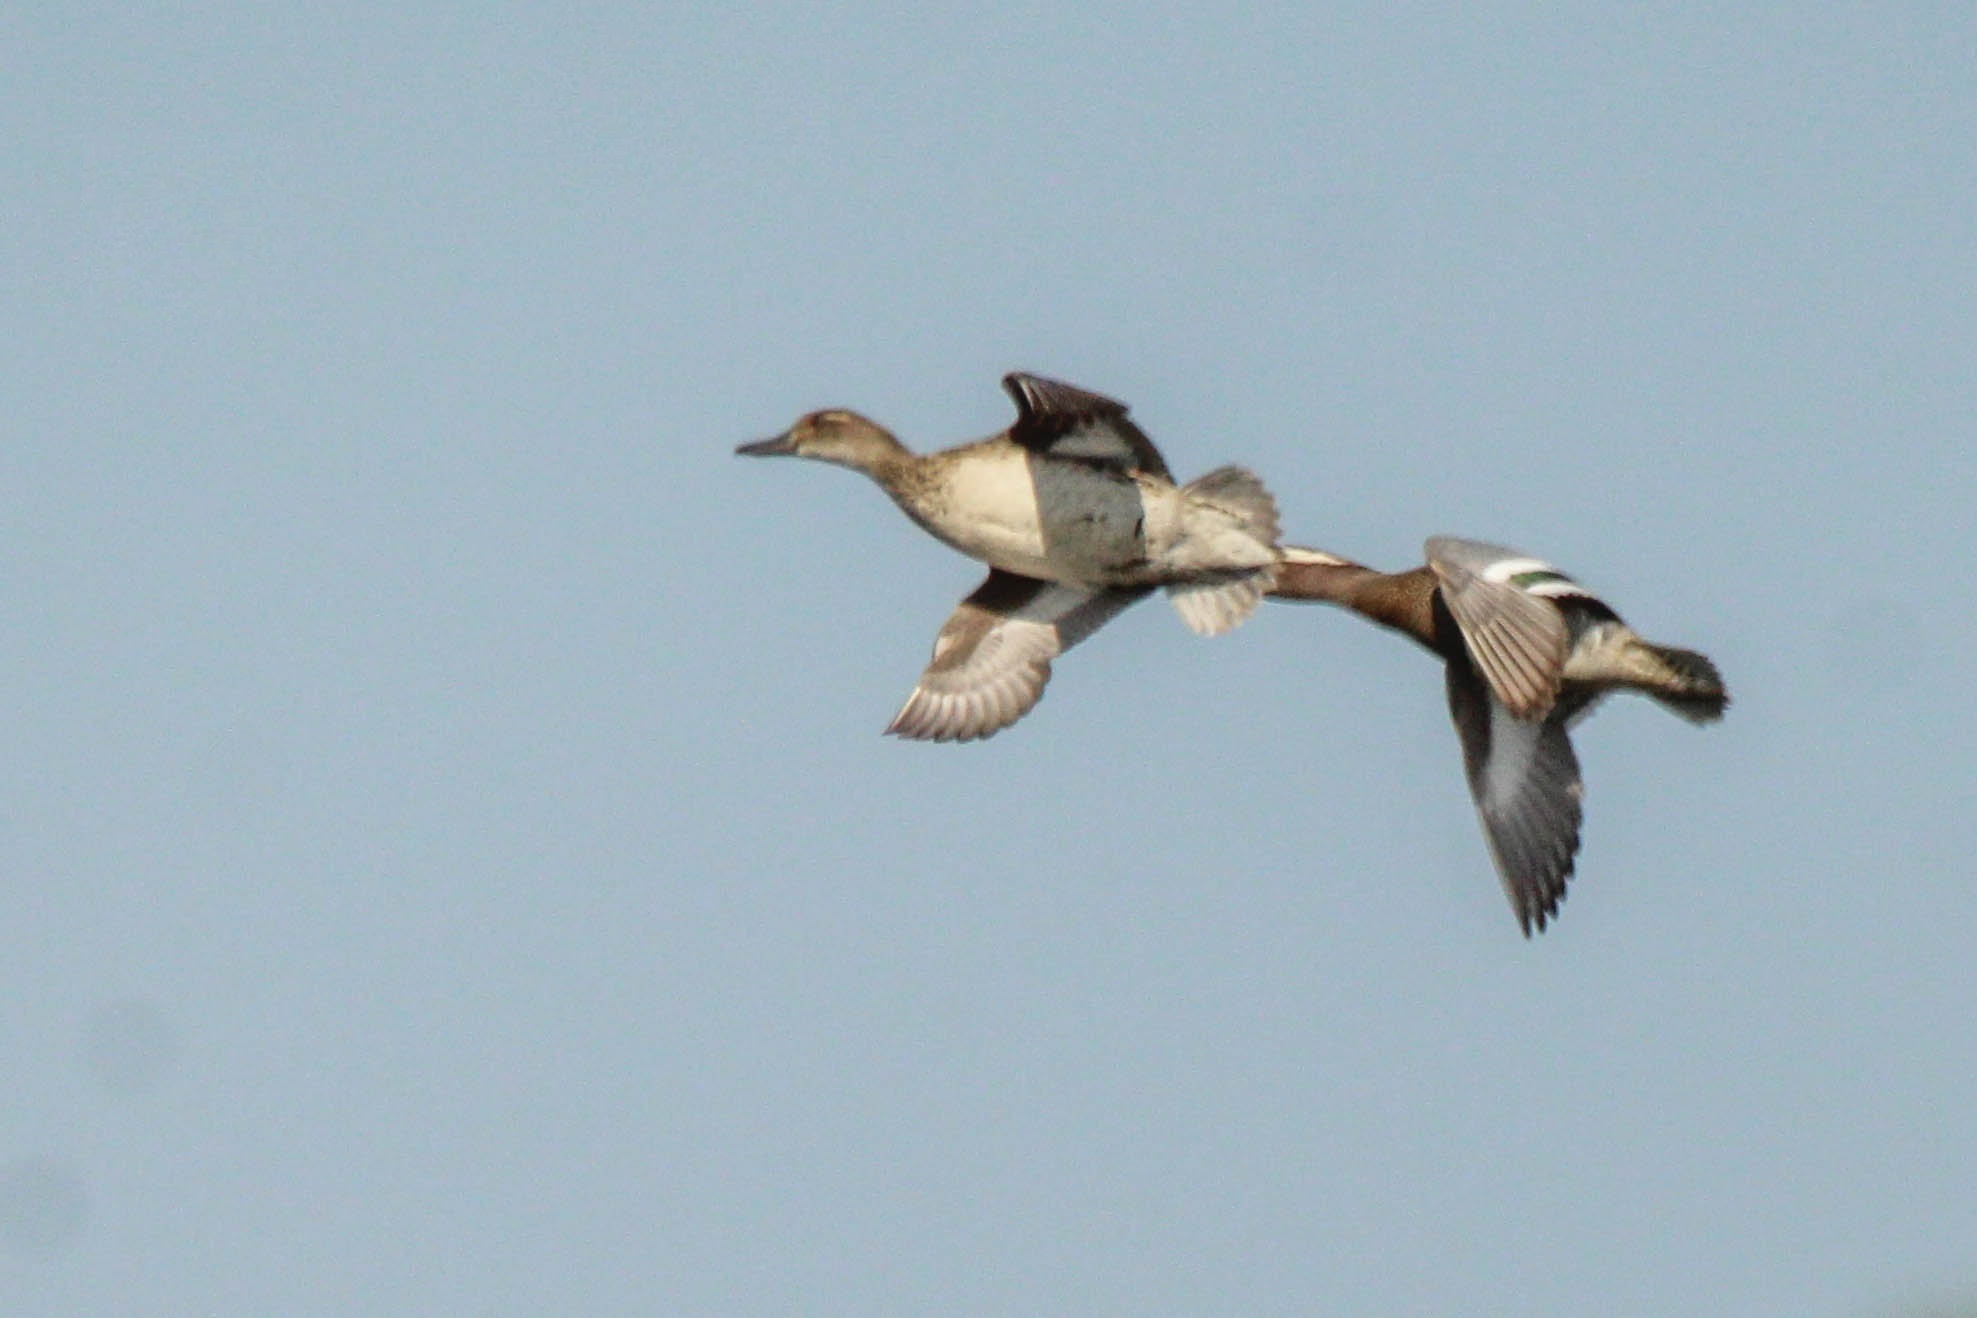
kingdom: Animalia
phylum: Chordata
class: Aves
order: Anseriformes
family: Anatidae
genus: Spatula
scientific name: Spatula querquedula
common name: Garganey
